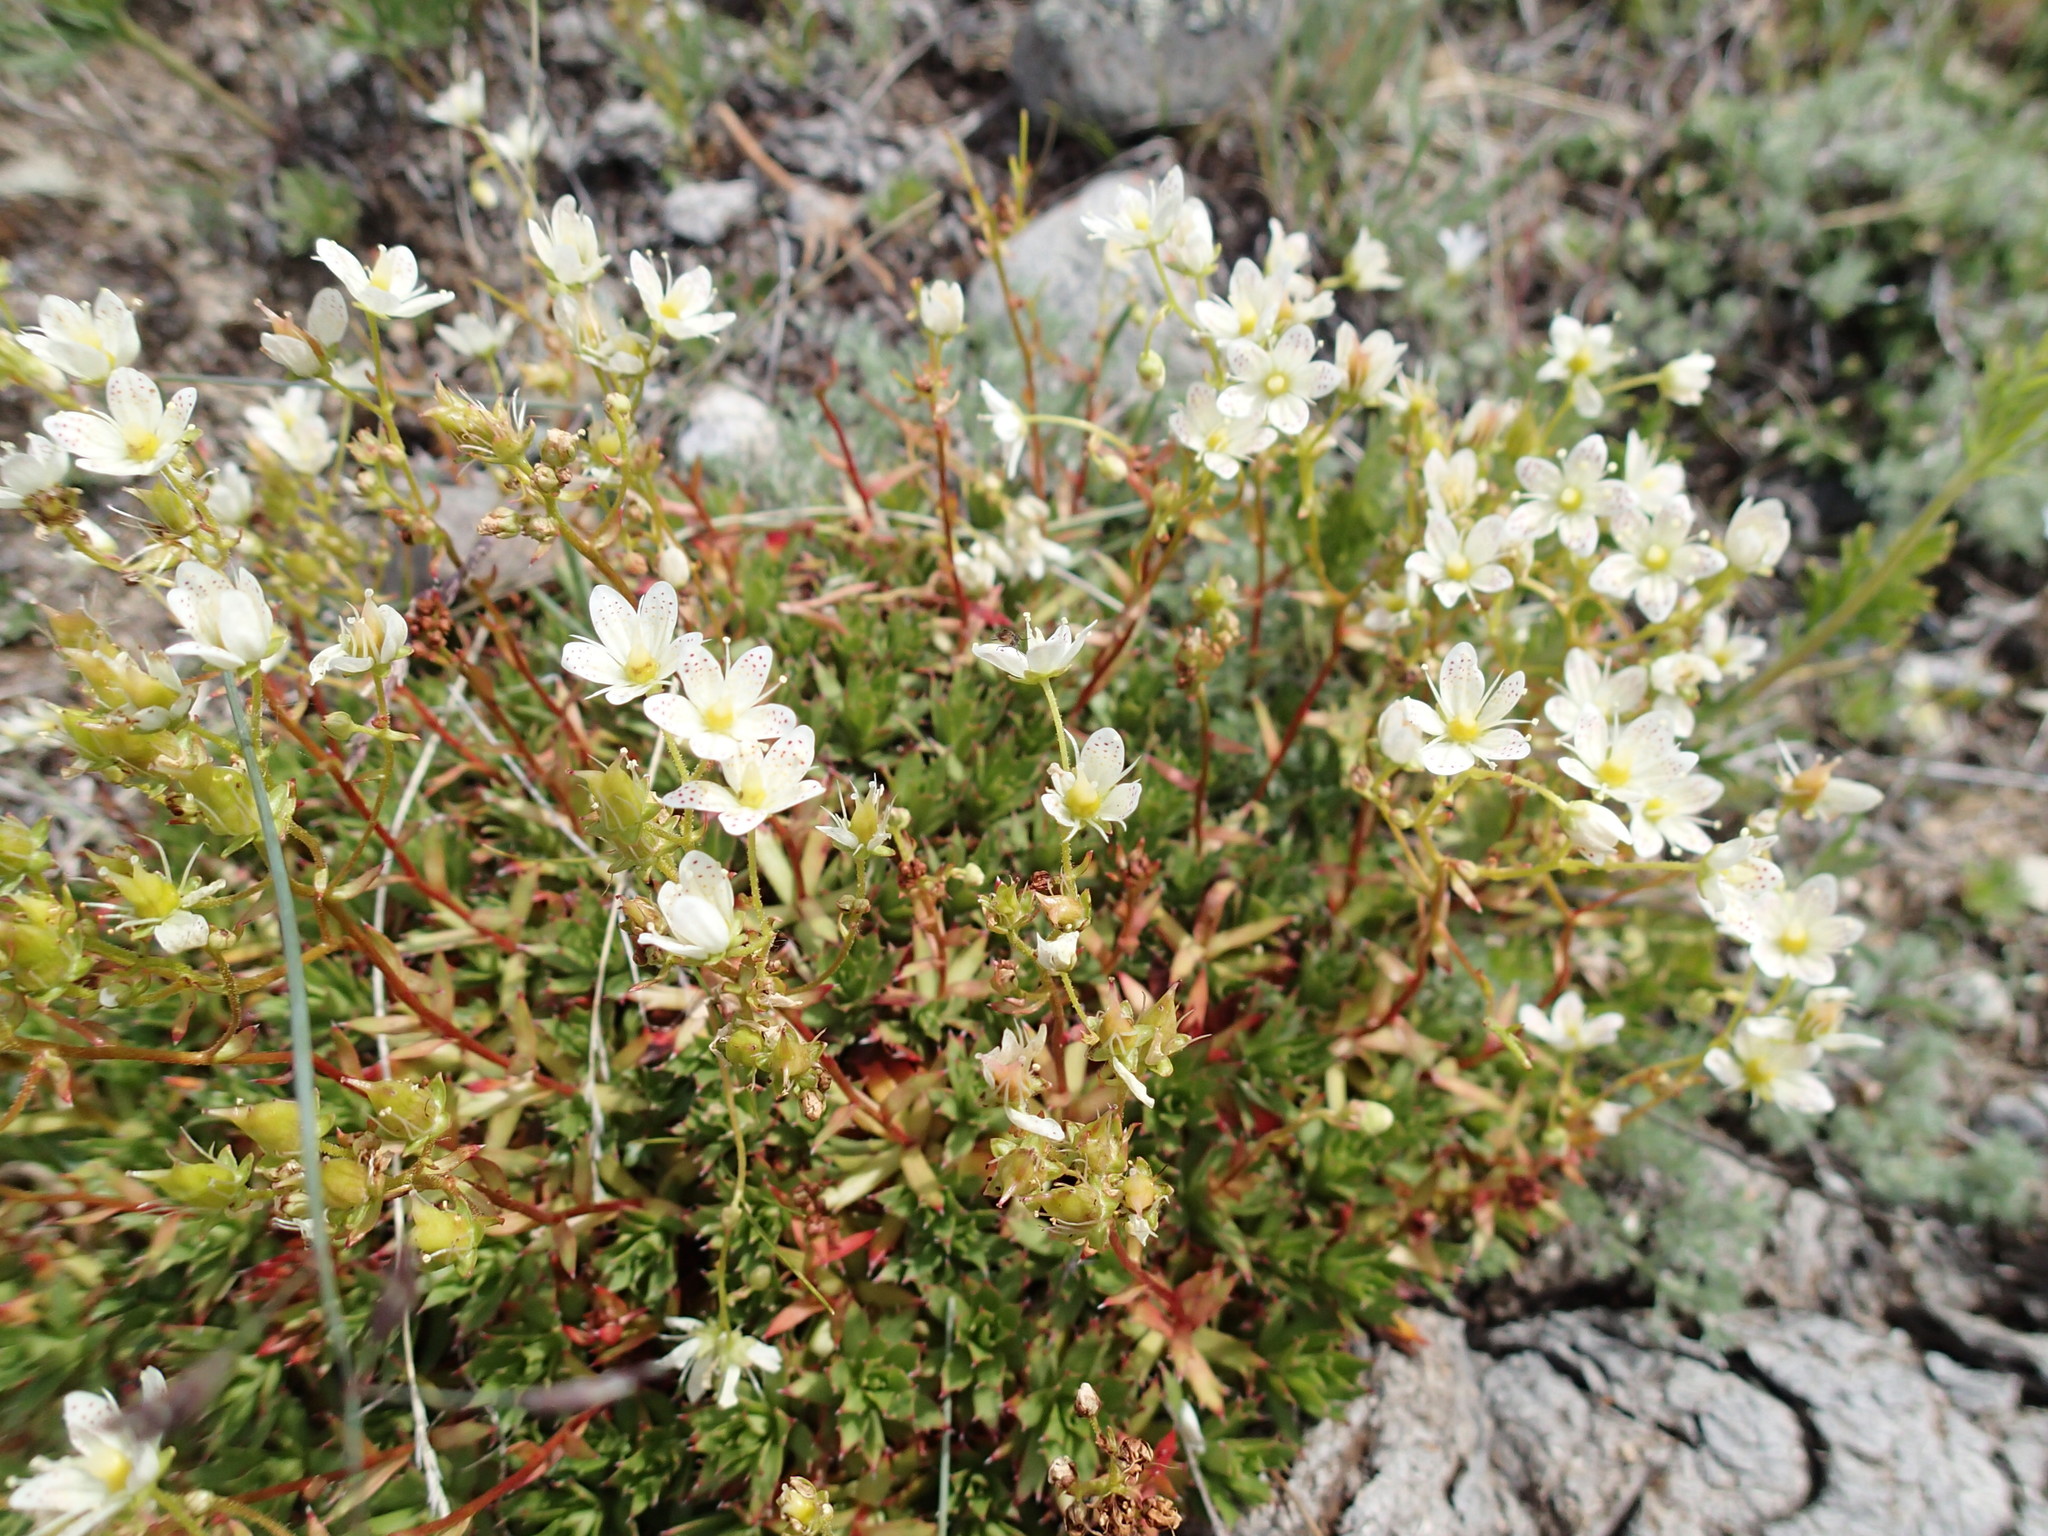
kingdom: Plantae
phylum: Tracheophyta
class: Magnoliopsida
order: Saxifragales
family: Saxifragaceae
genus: Saxifraga
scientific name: Saxifraga tricuspidata
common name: Prickly saxifrage
